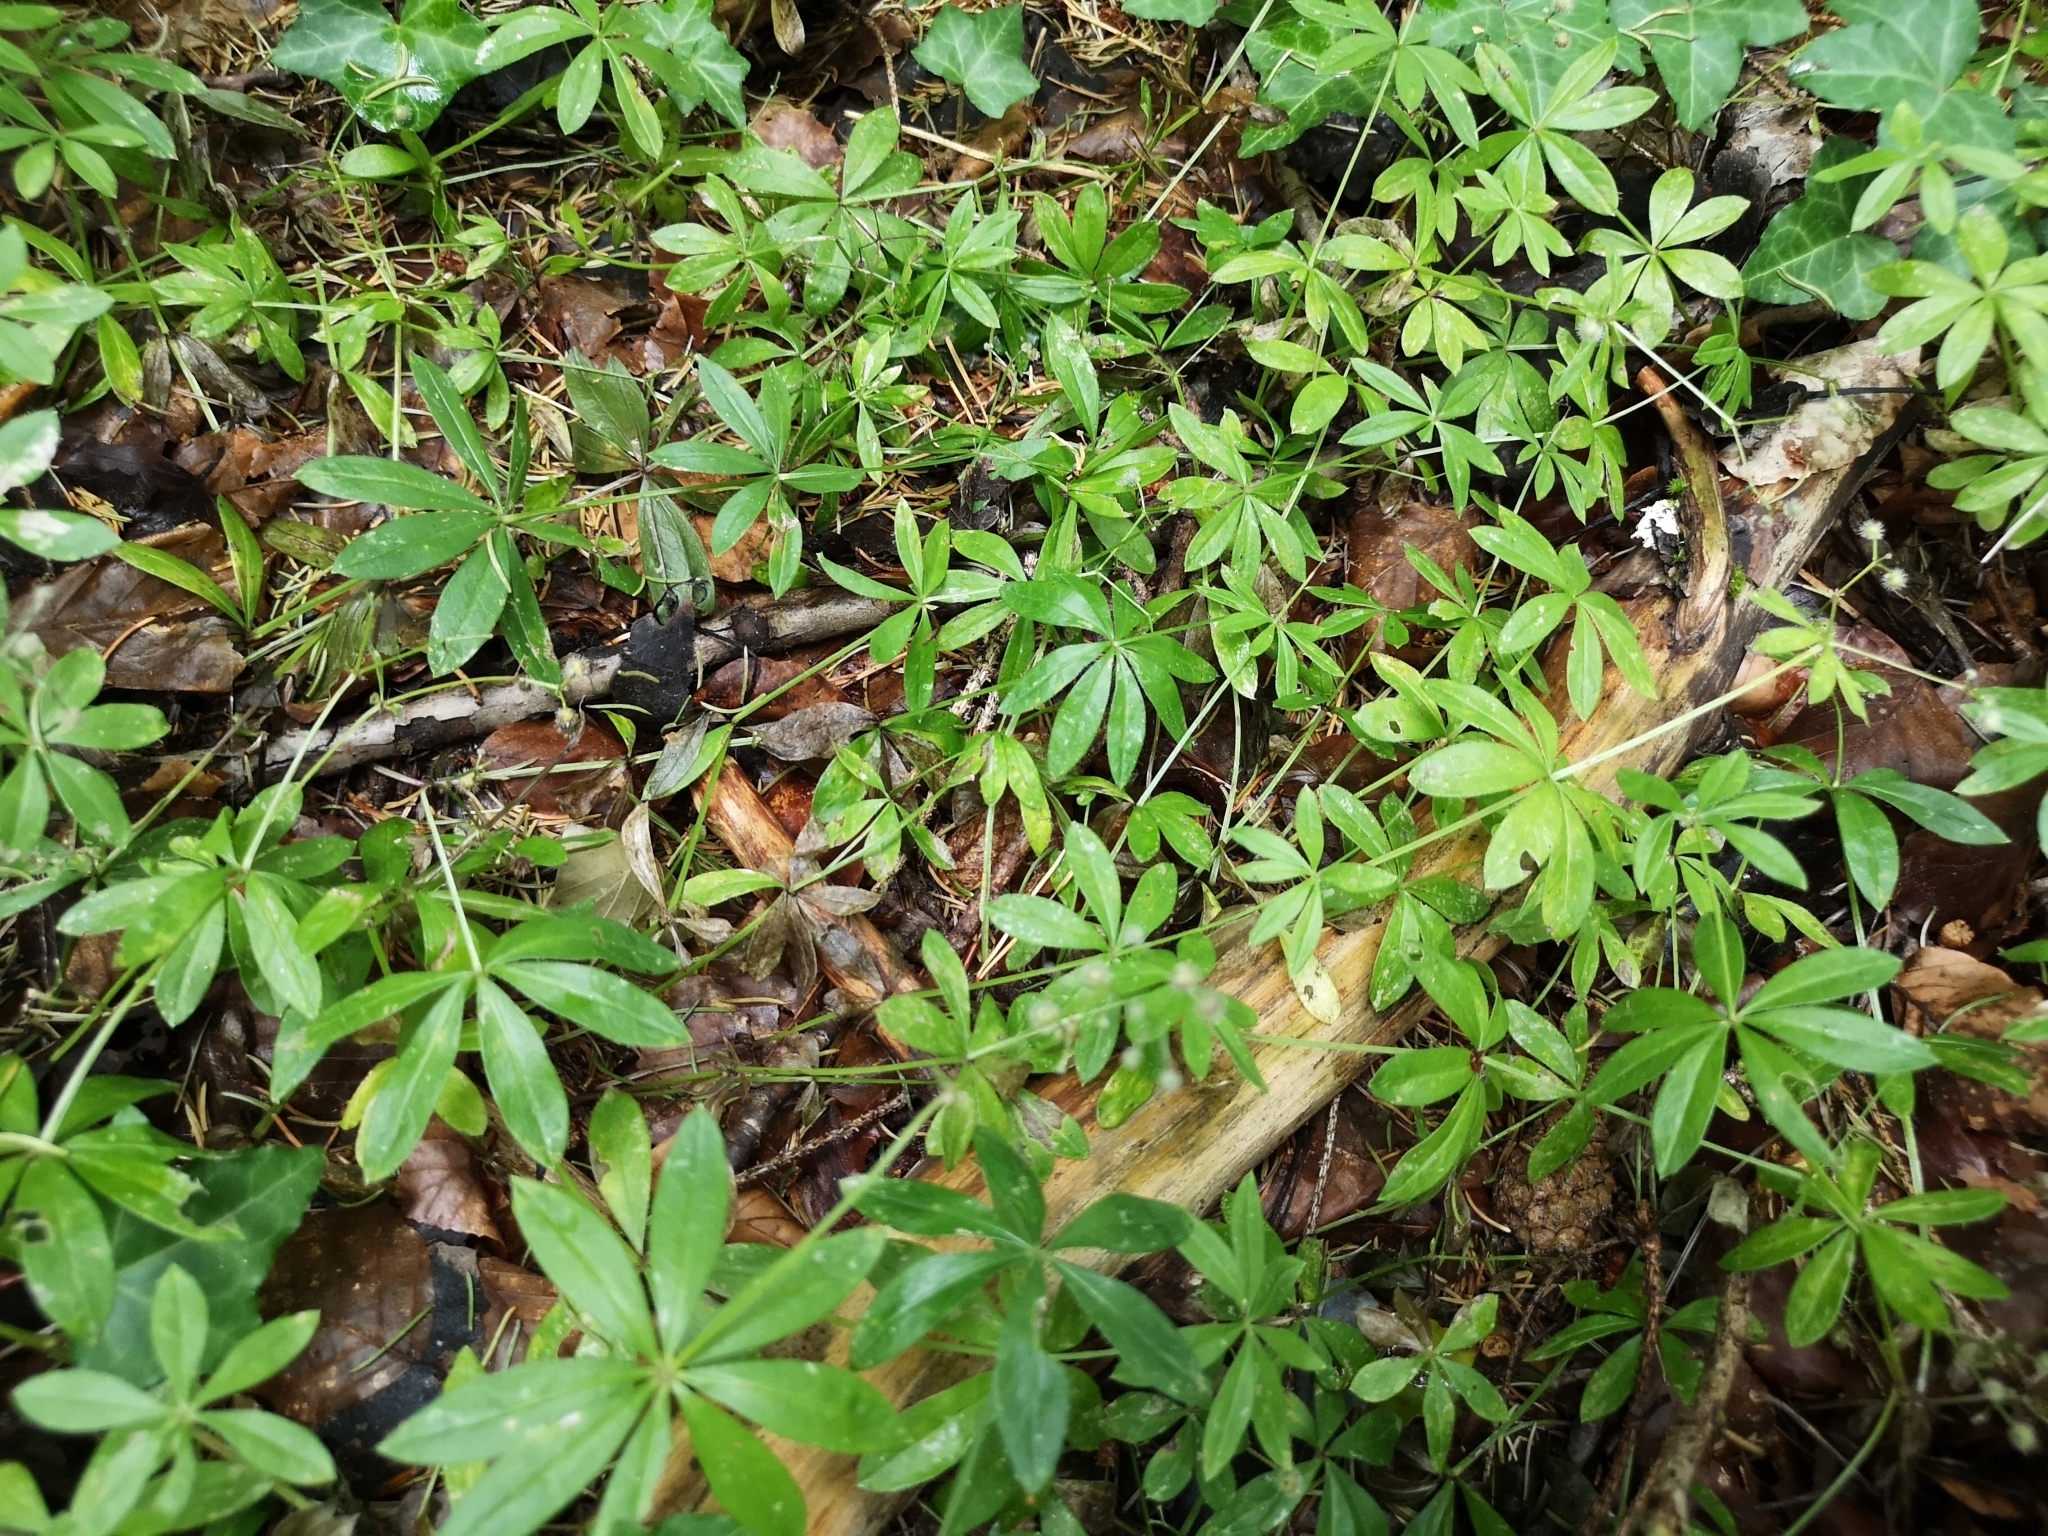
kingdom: Plantae
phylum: Tracheophyta
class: Magnoliopsida
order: Gentianales
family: Rubiaceae
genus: Galium
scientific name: Galium odoratum
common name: Sweet woodruff
